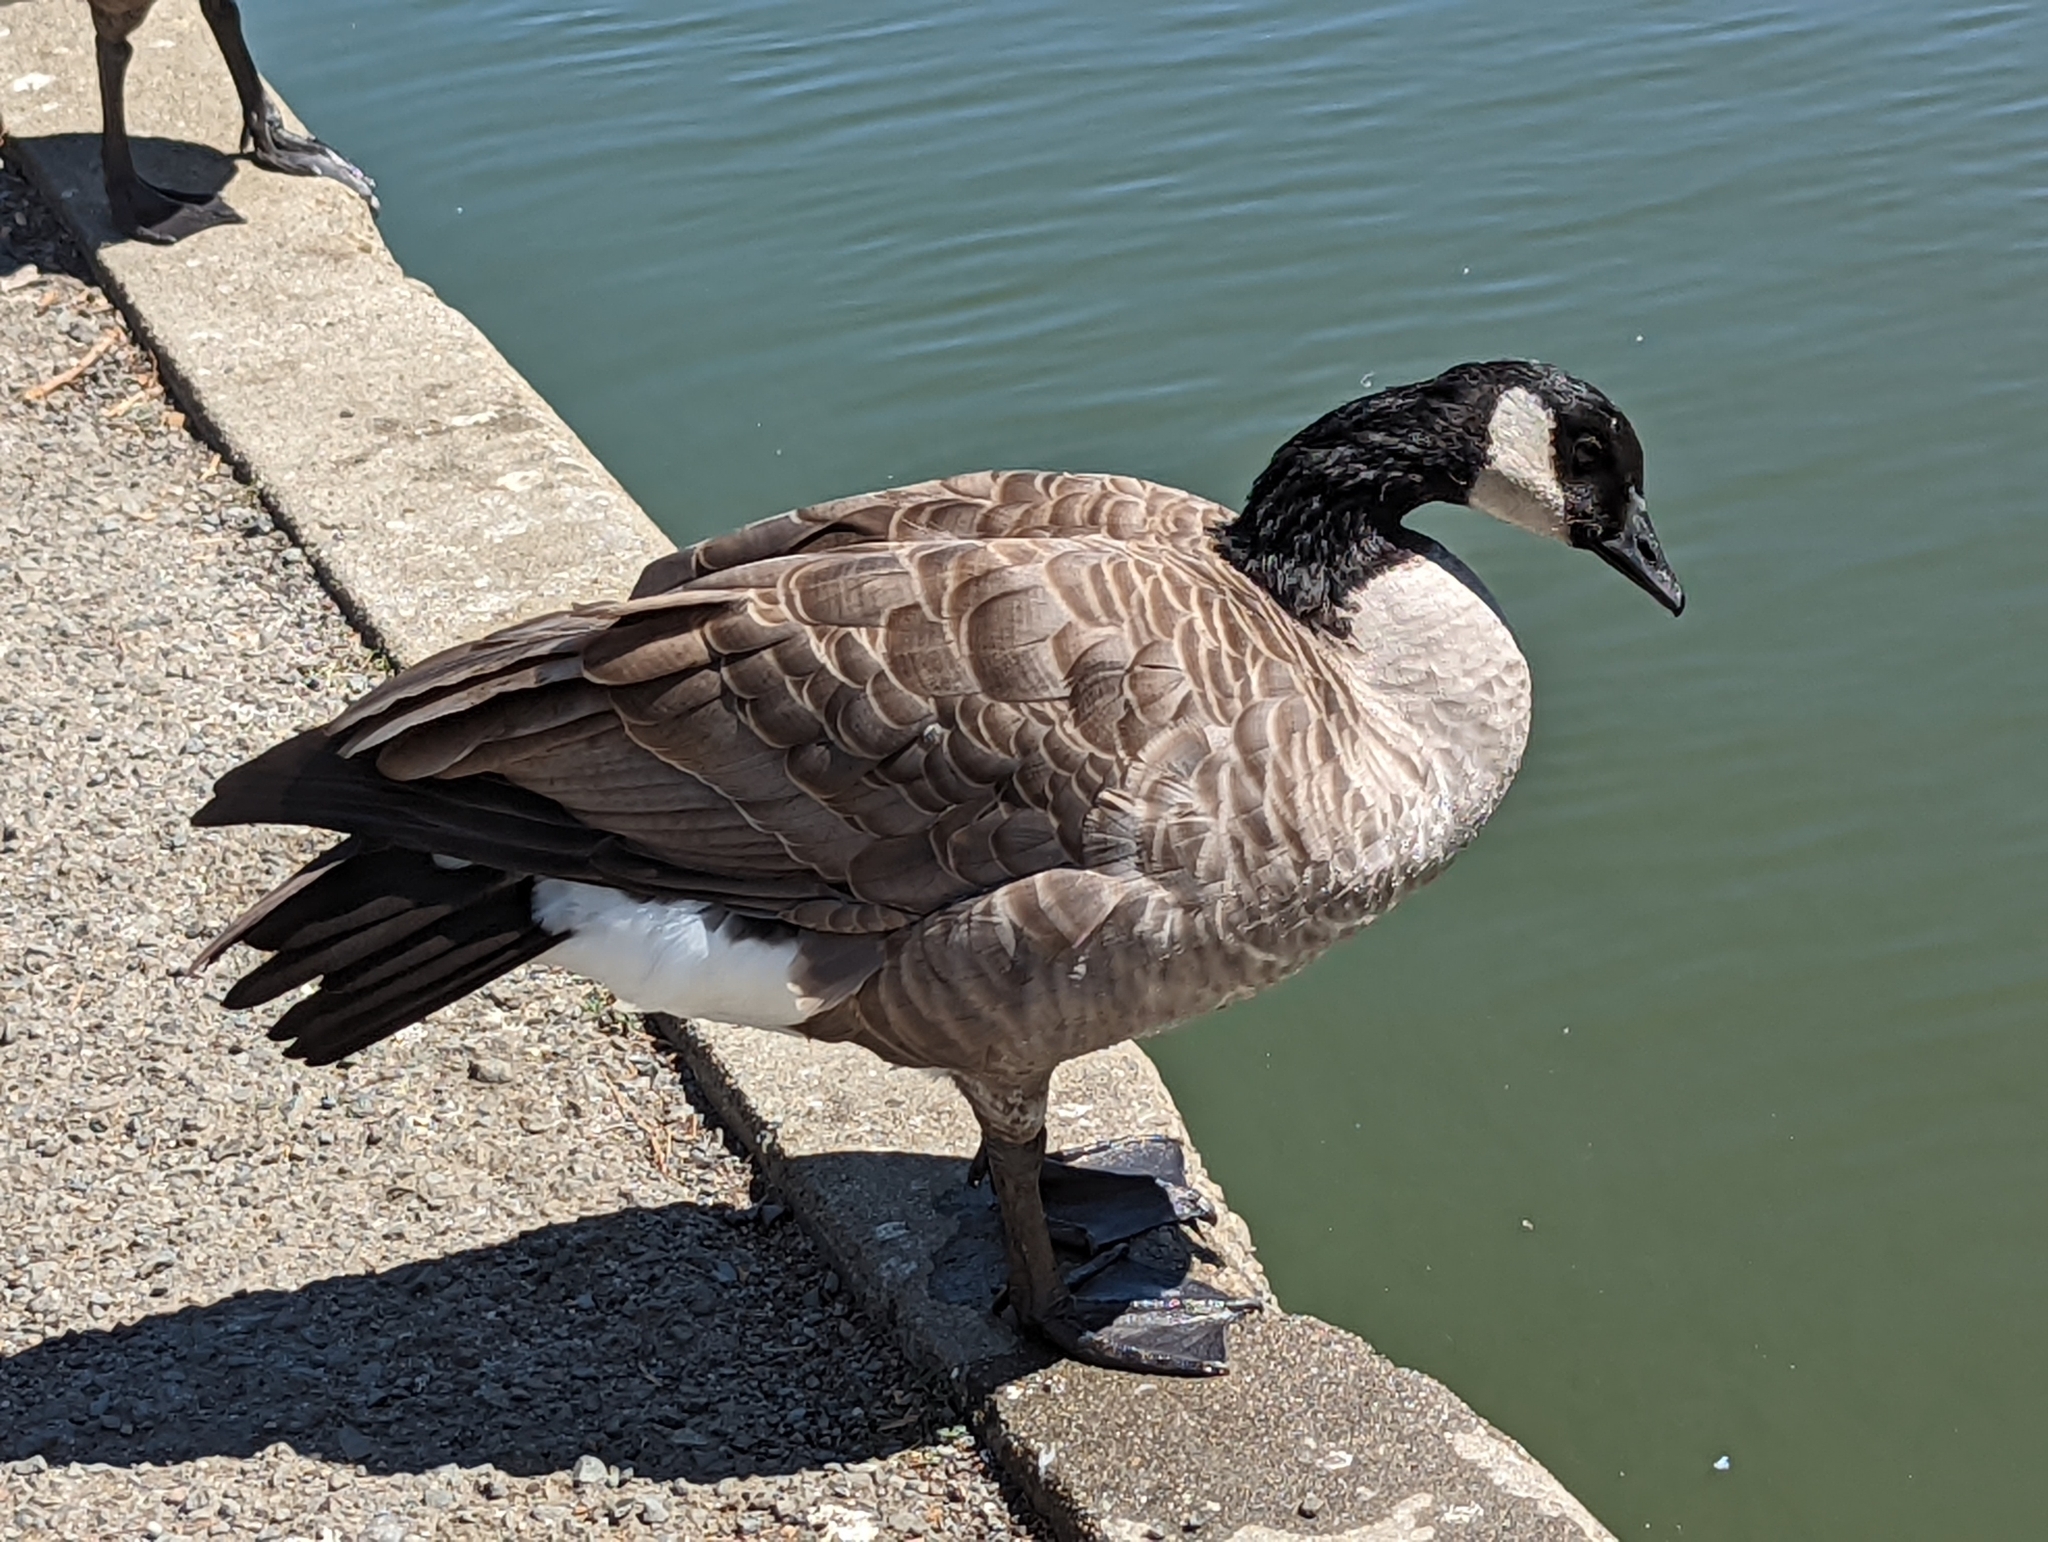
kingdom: Animalia
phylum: Chordata
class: Aves
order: Anseriformes
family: Anatidae
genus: Branta
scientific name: Branta canadensis
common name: Canada goose
